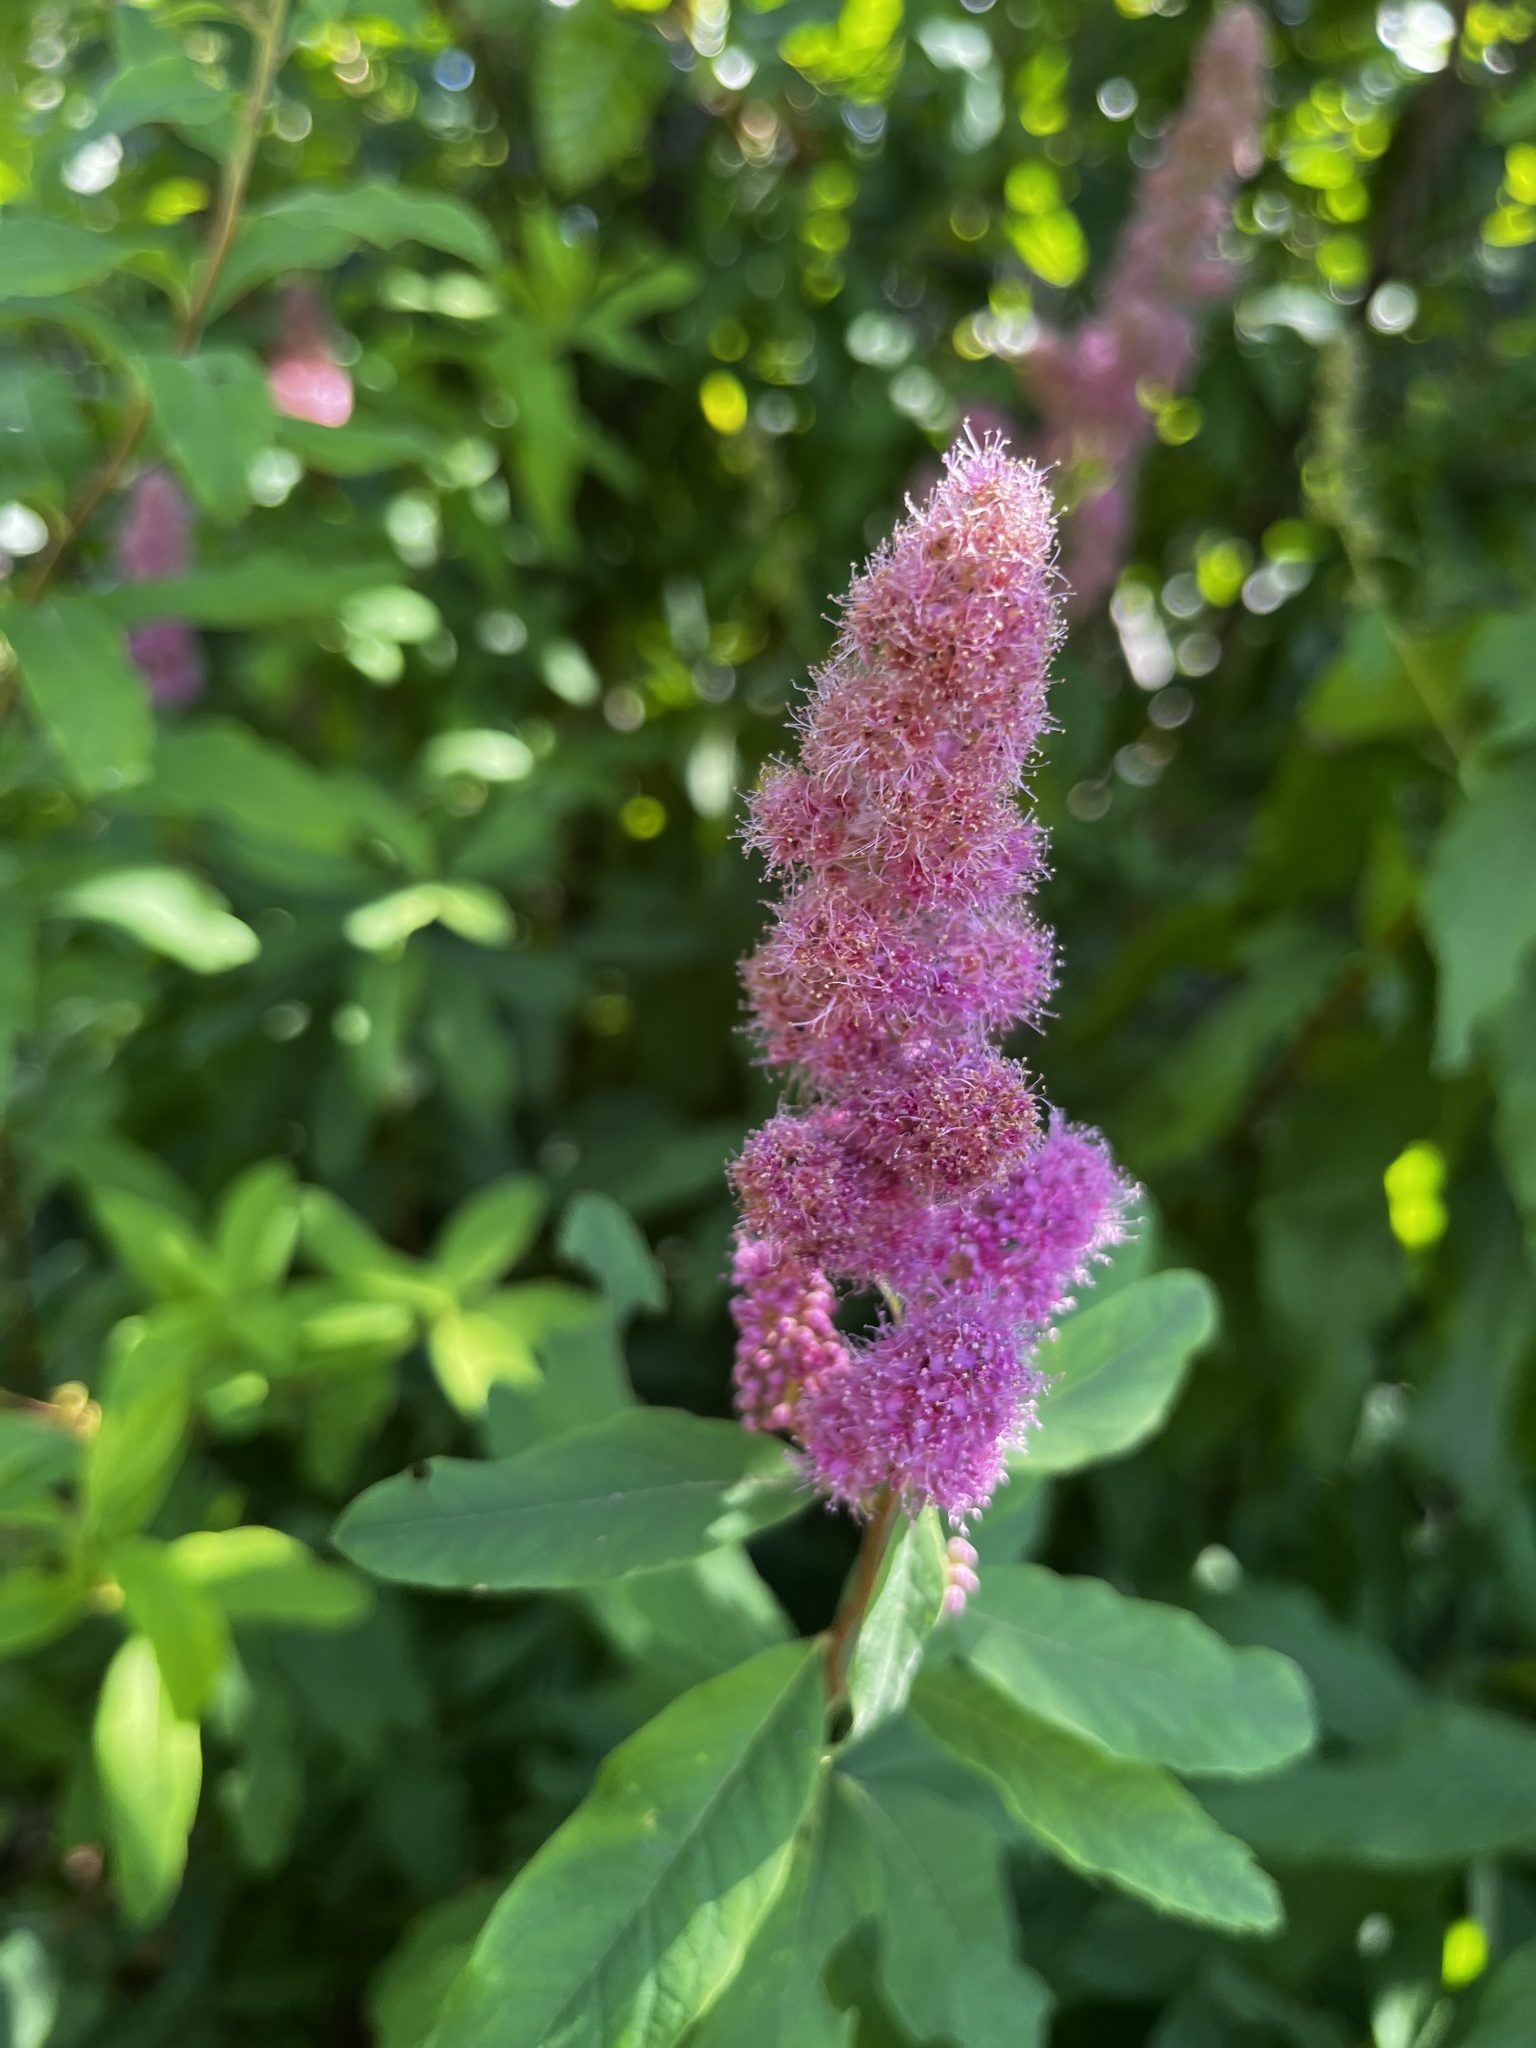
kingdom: Plantae
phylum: Tracheophyta
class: Magnoliopsida
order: Rosales
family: Rosaceae
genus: Spiraea
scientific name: Spiraea douglasii
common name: Steeplebush
